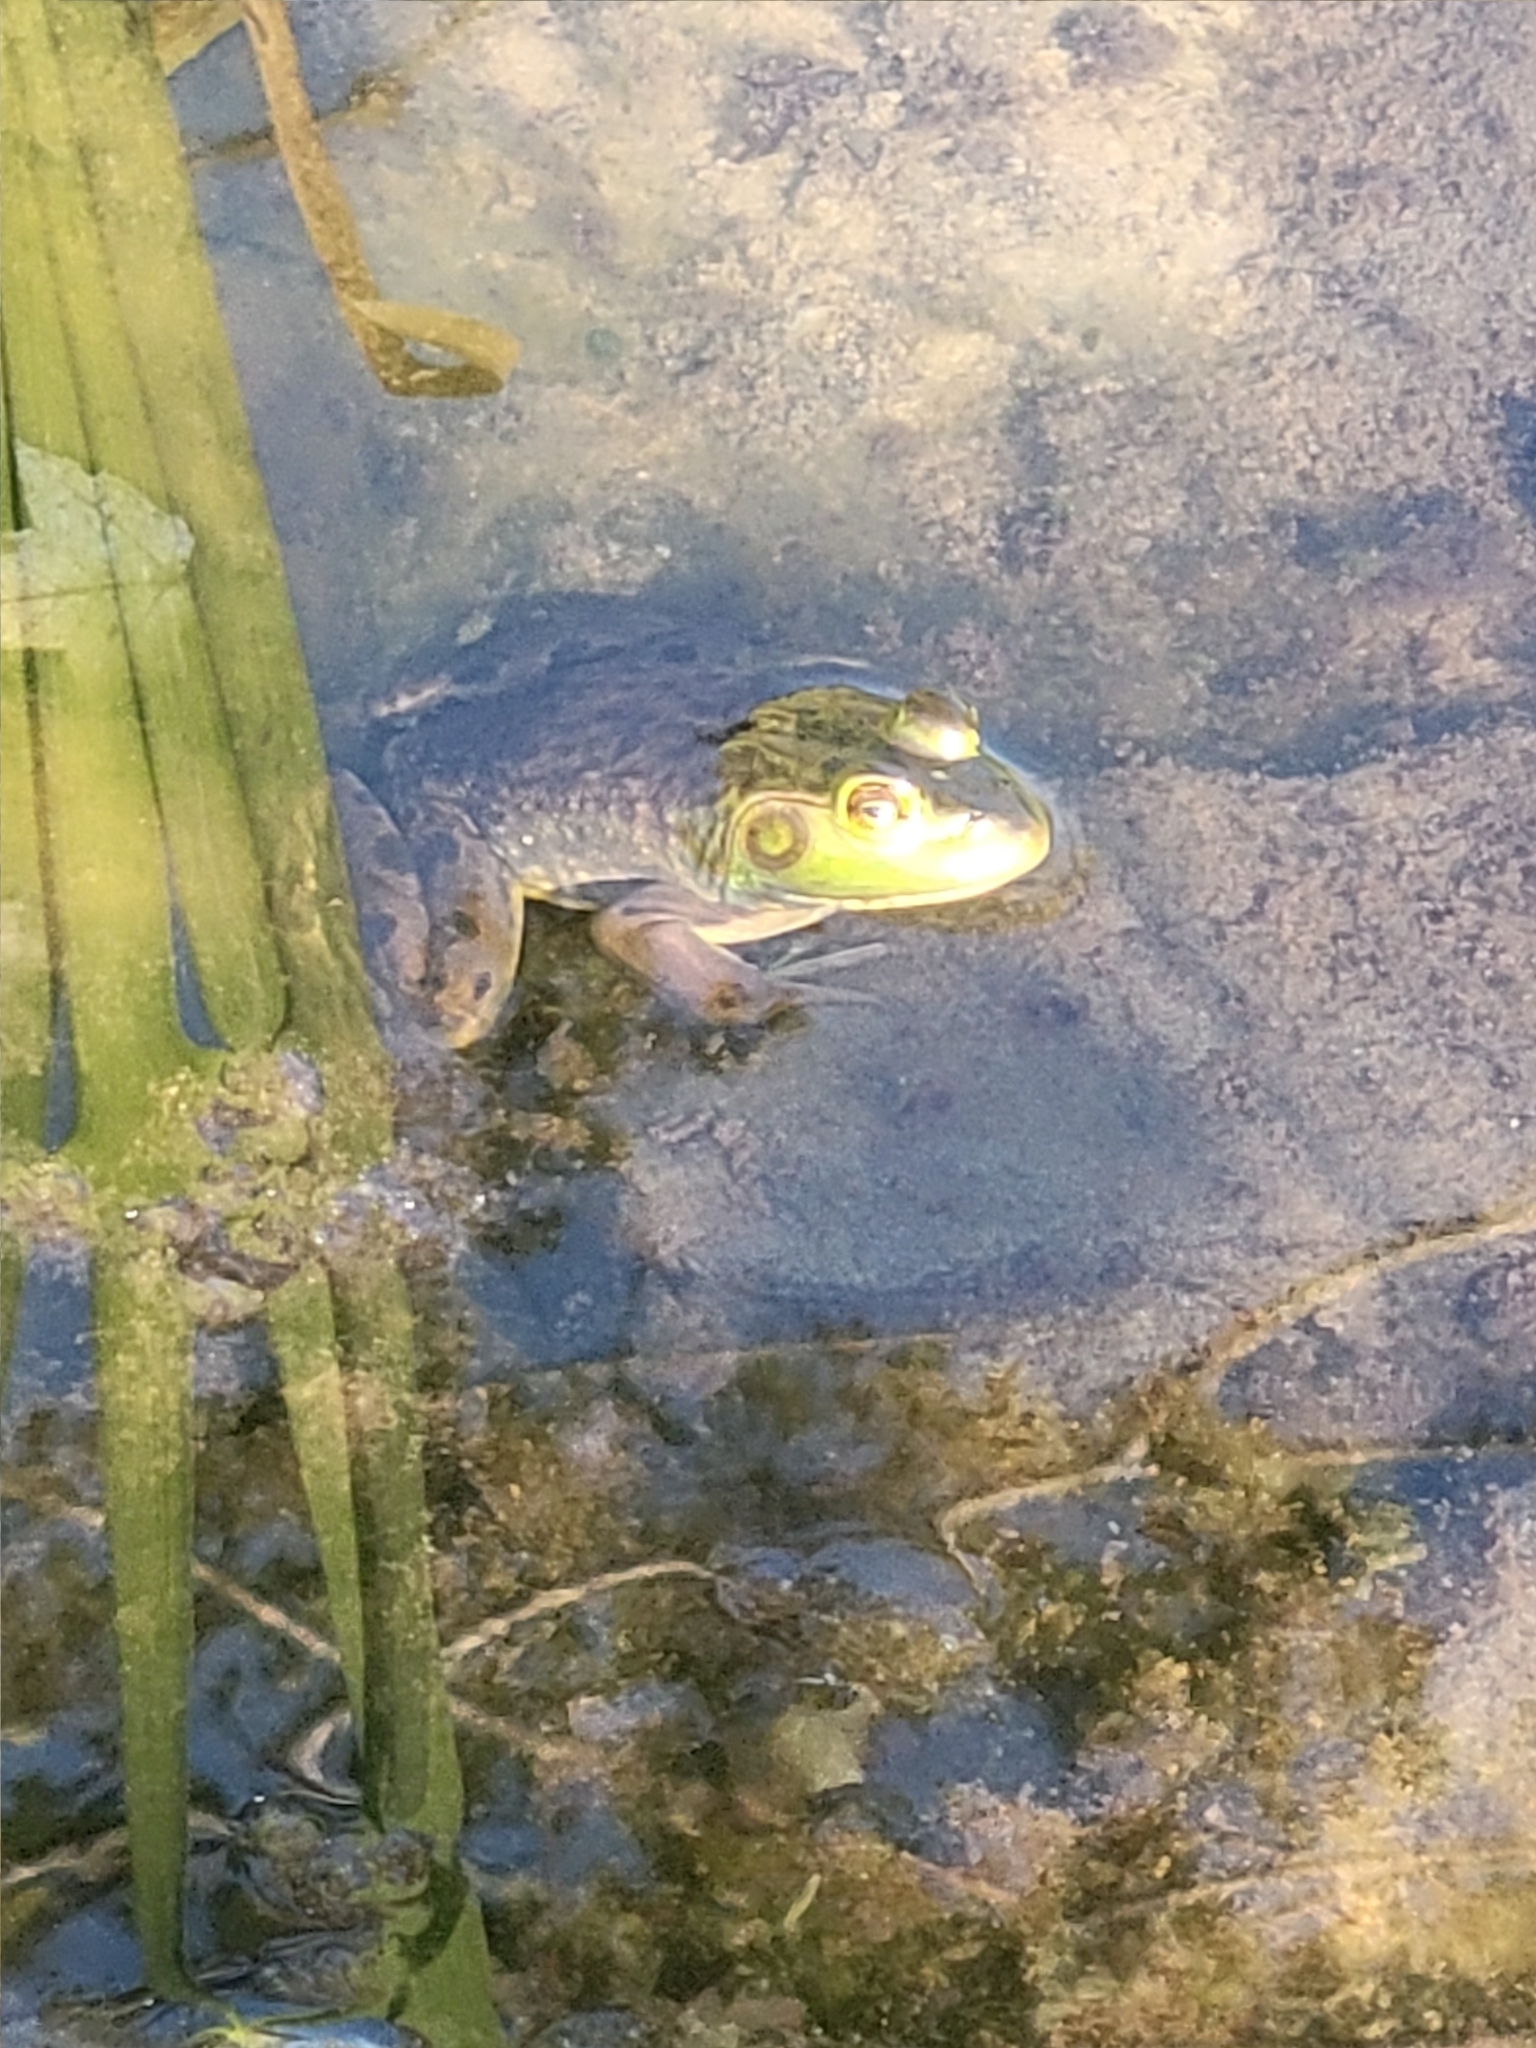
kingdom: Animalia
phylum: Chordata
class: Amphibia
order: Anura
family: Ranidae
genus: Lithobates
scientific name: Lithobates catesbeianus
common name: American bullfrog
